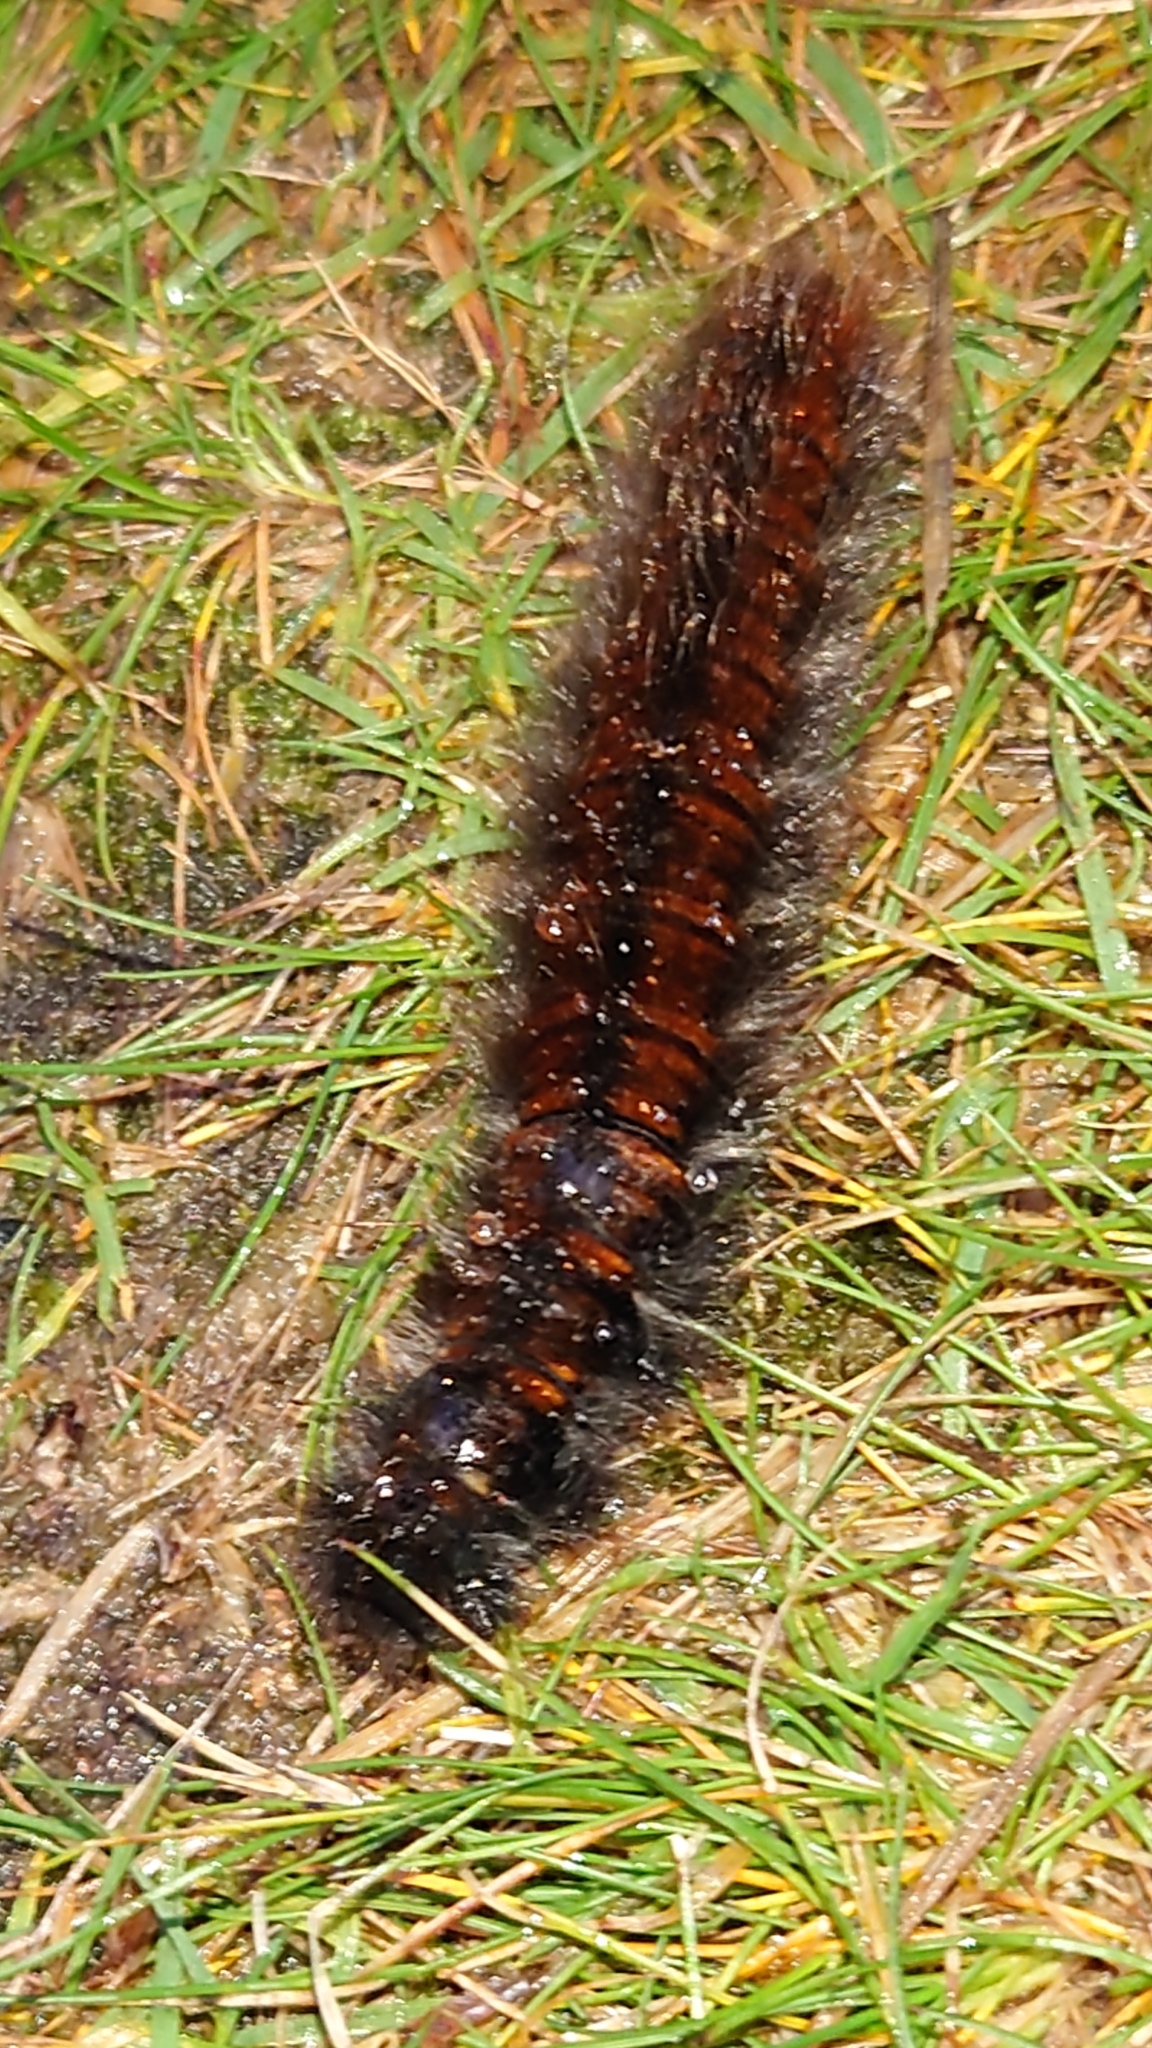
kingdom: Animalia
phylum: Arthropoda
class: Insecta
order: Lepidoptera
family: Lasiocampidae
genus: Macrothylacia
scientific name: Macrothylacia rubi
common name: Fox moth
